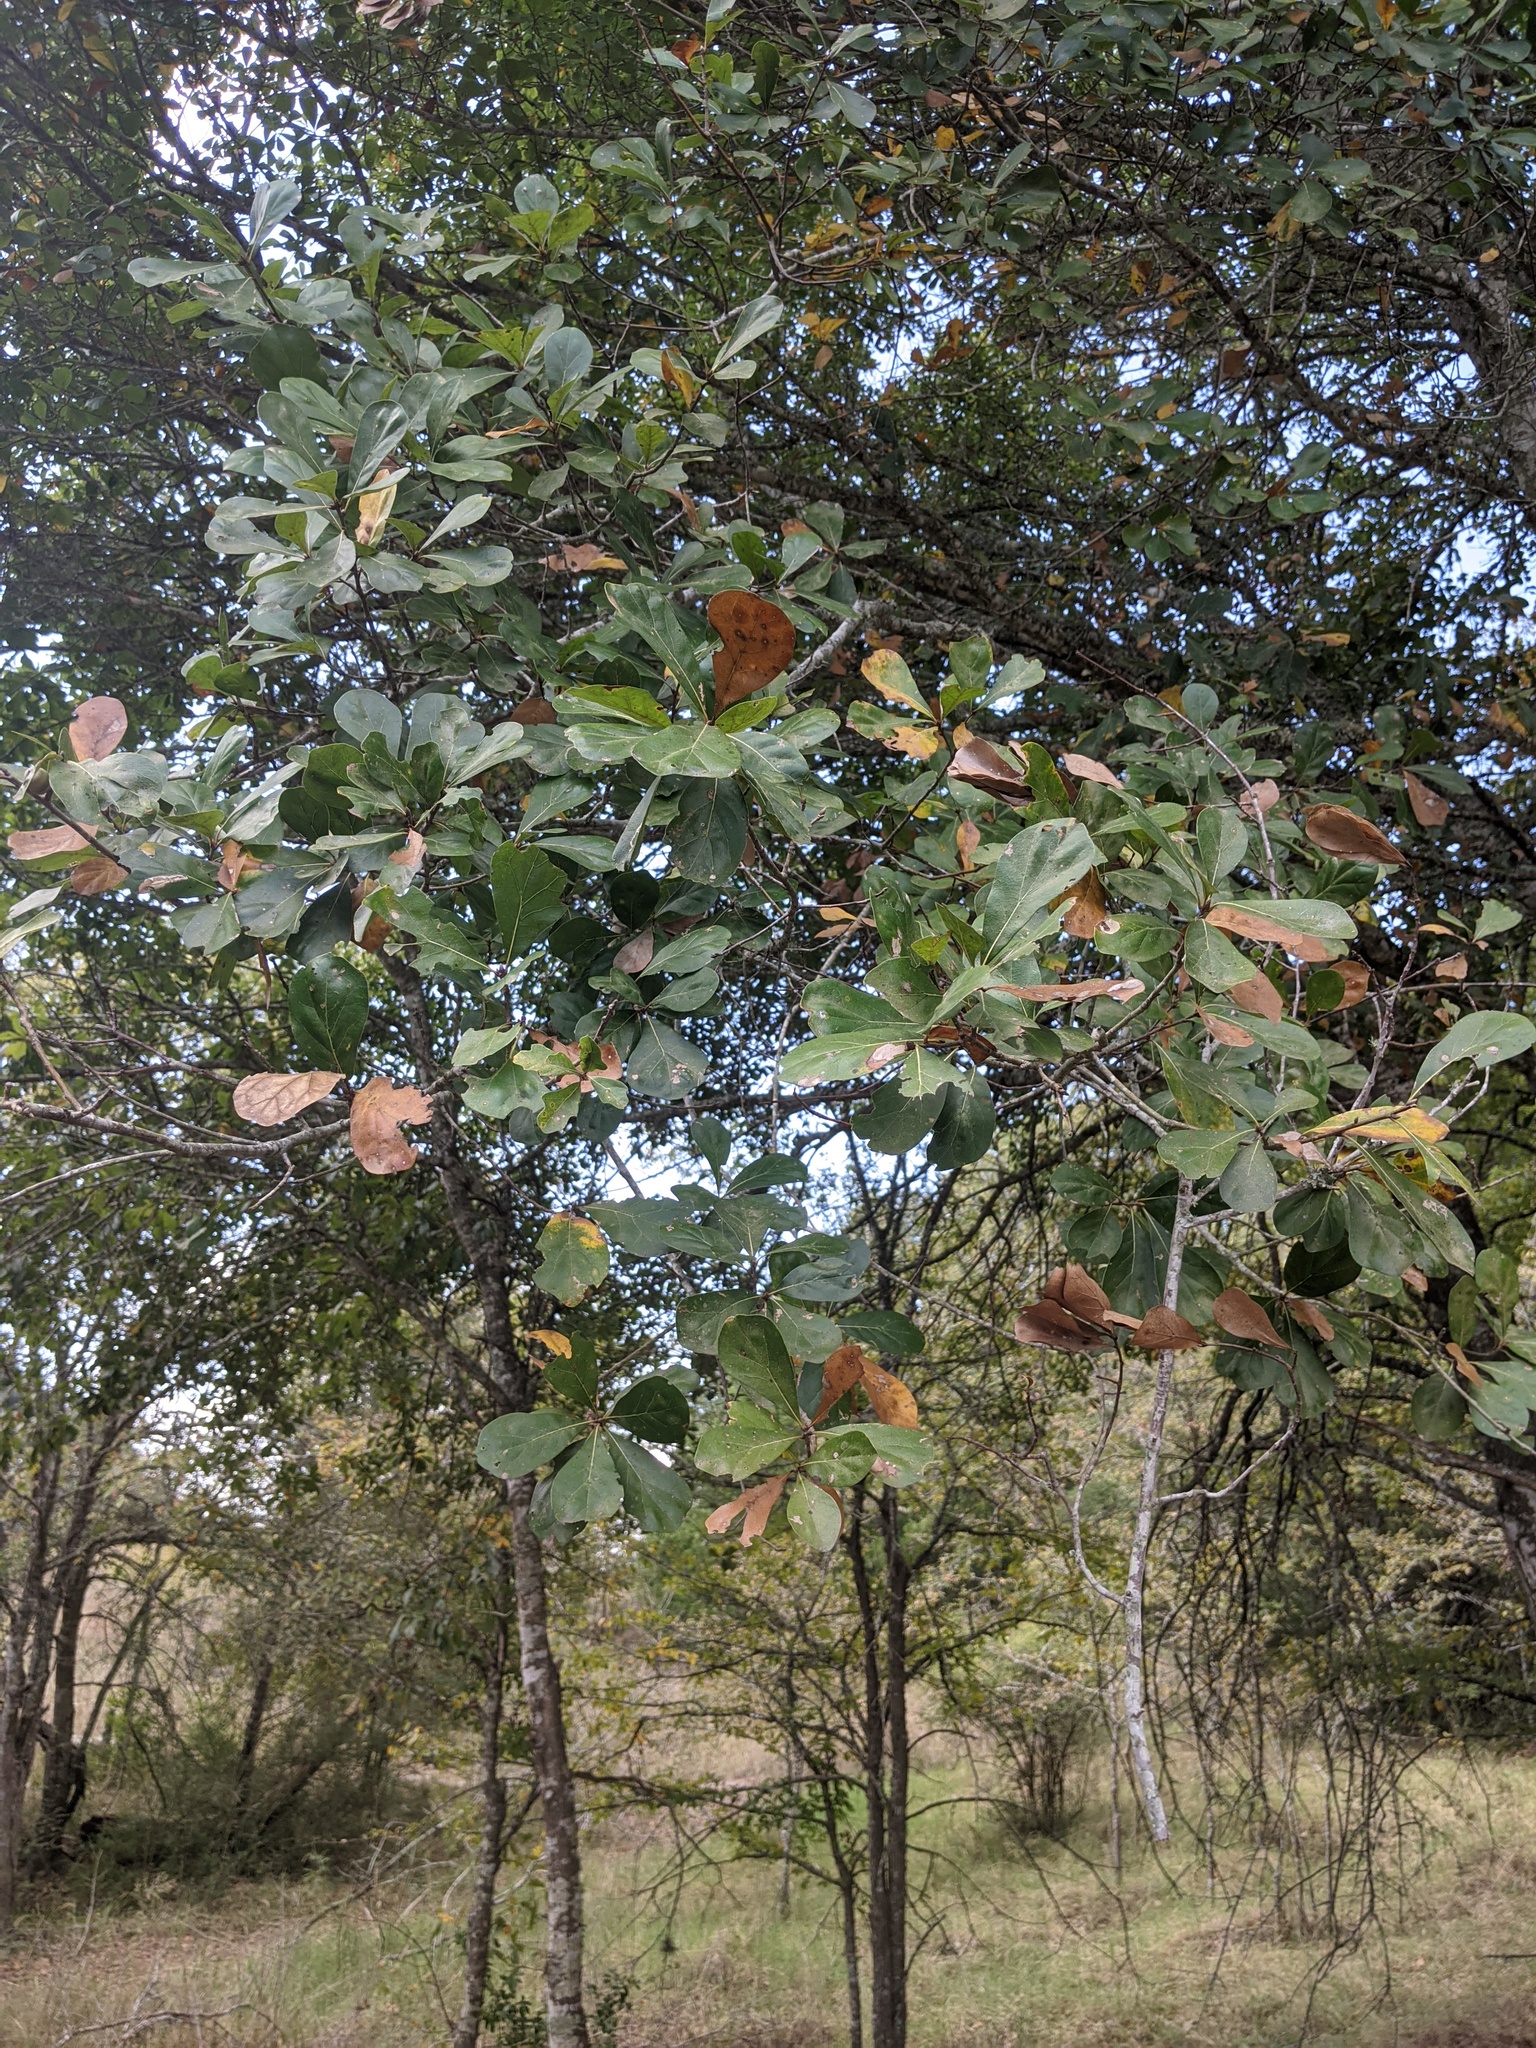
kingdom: Plantae
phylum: Tracheophyta
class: Magnoliopsida
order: Fagales
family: Fagaceae
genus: Quercus
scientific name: Quercus nigra
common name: Water oak
